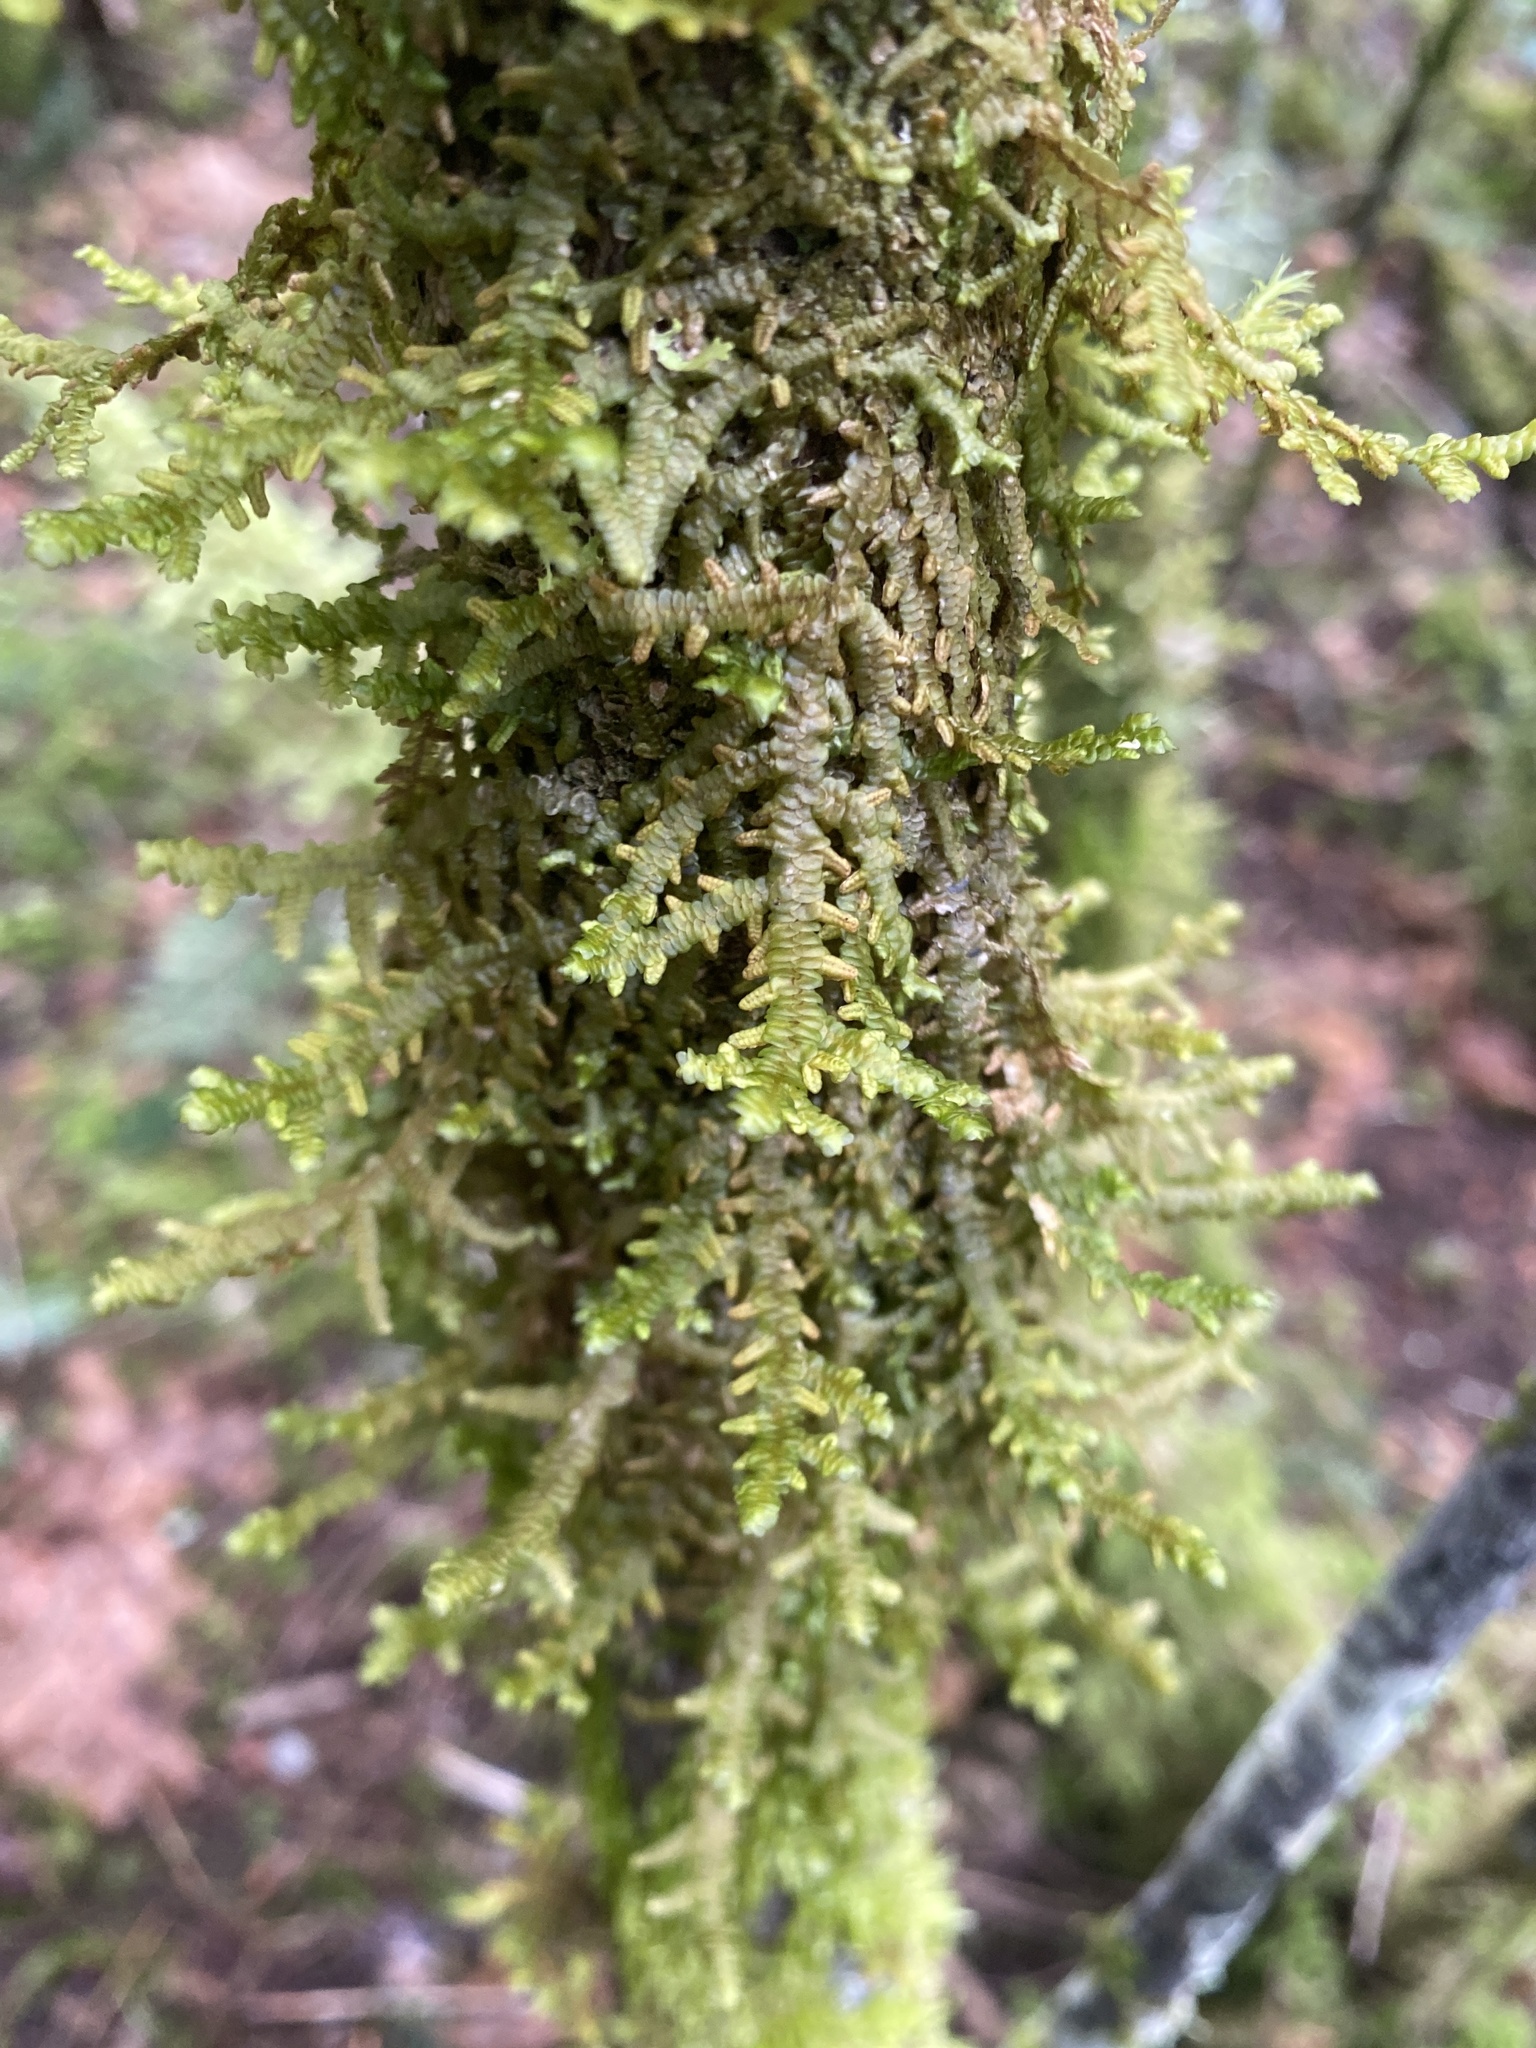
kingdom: Plantae
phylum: Marchantiophyta
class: Jungermanniopsida
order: Porellales
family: Porellaceae
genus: Porella
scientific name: Porella navicularis
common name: Tree ruffle liverwort
